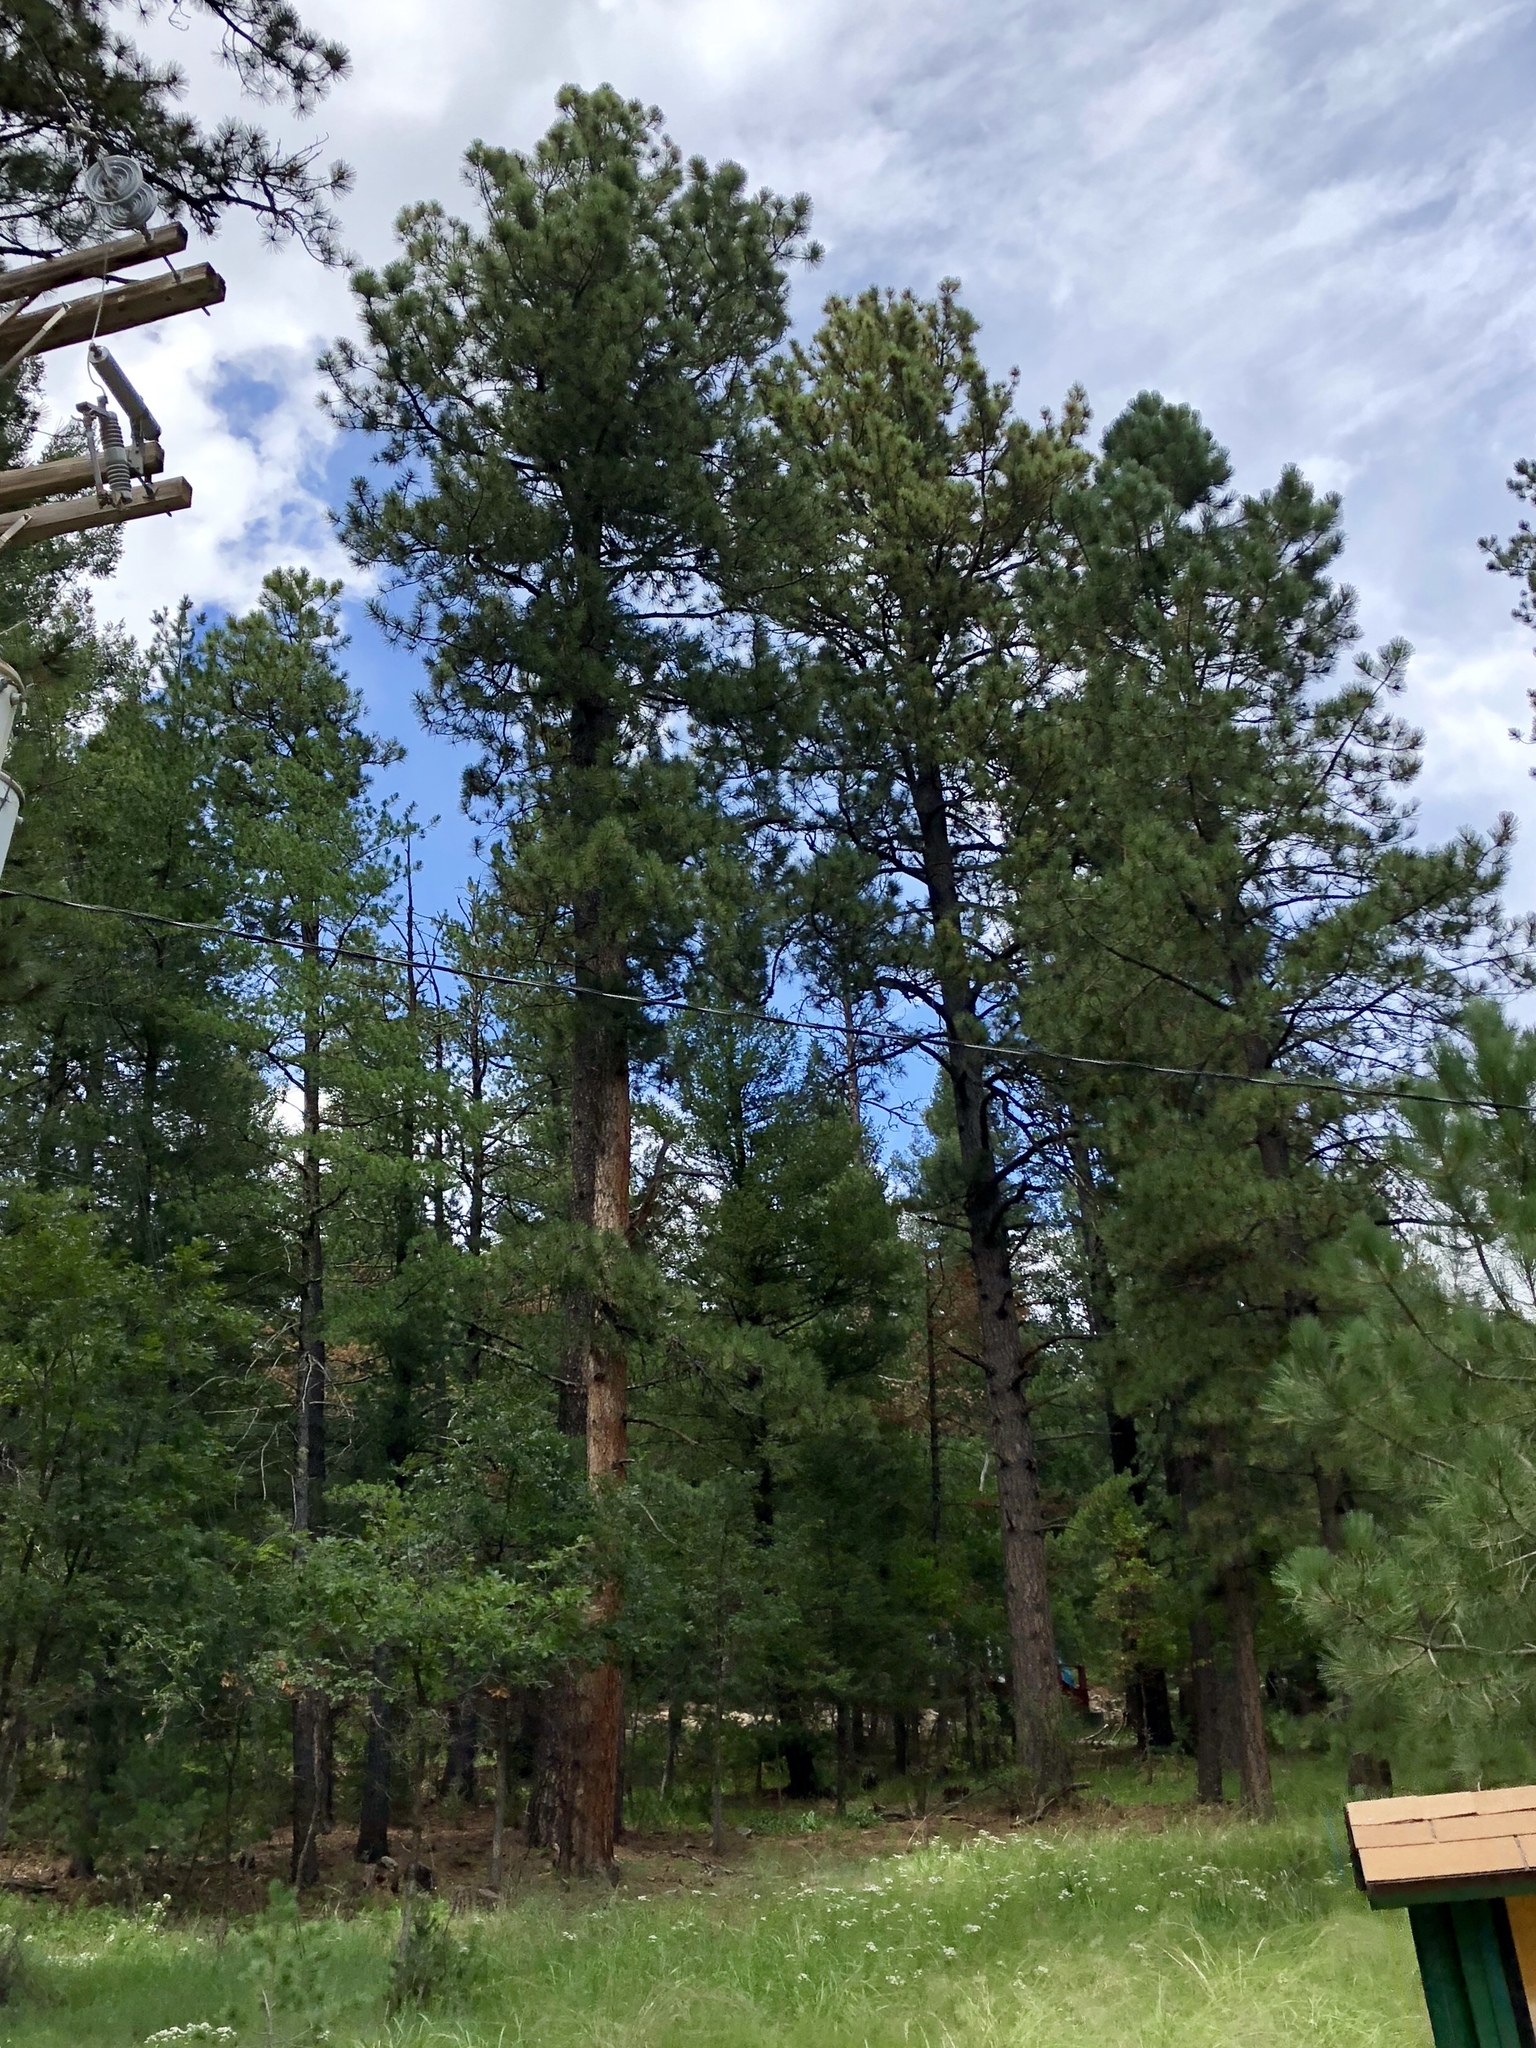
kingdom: Plantae
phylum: Tracheophyta
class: Pinopsida
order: Pinales
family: Pinaceae
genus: Pinus
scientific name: Pinus ponderosa
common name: Western yellow-pine
